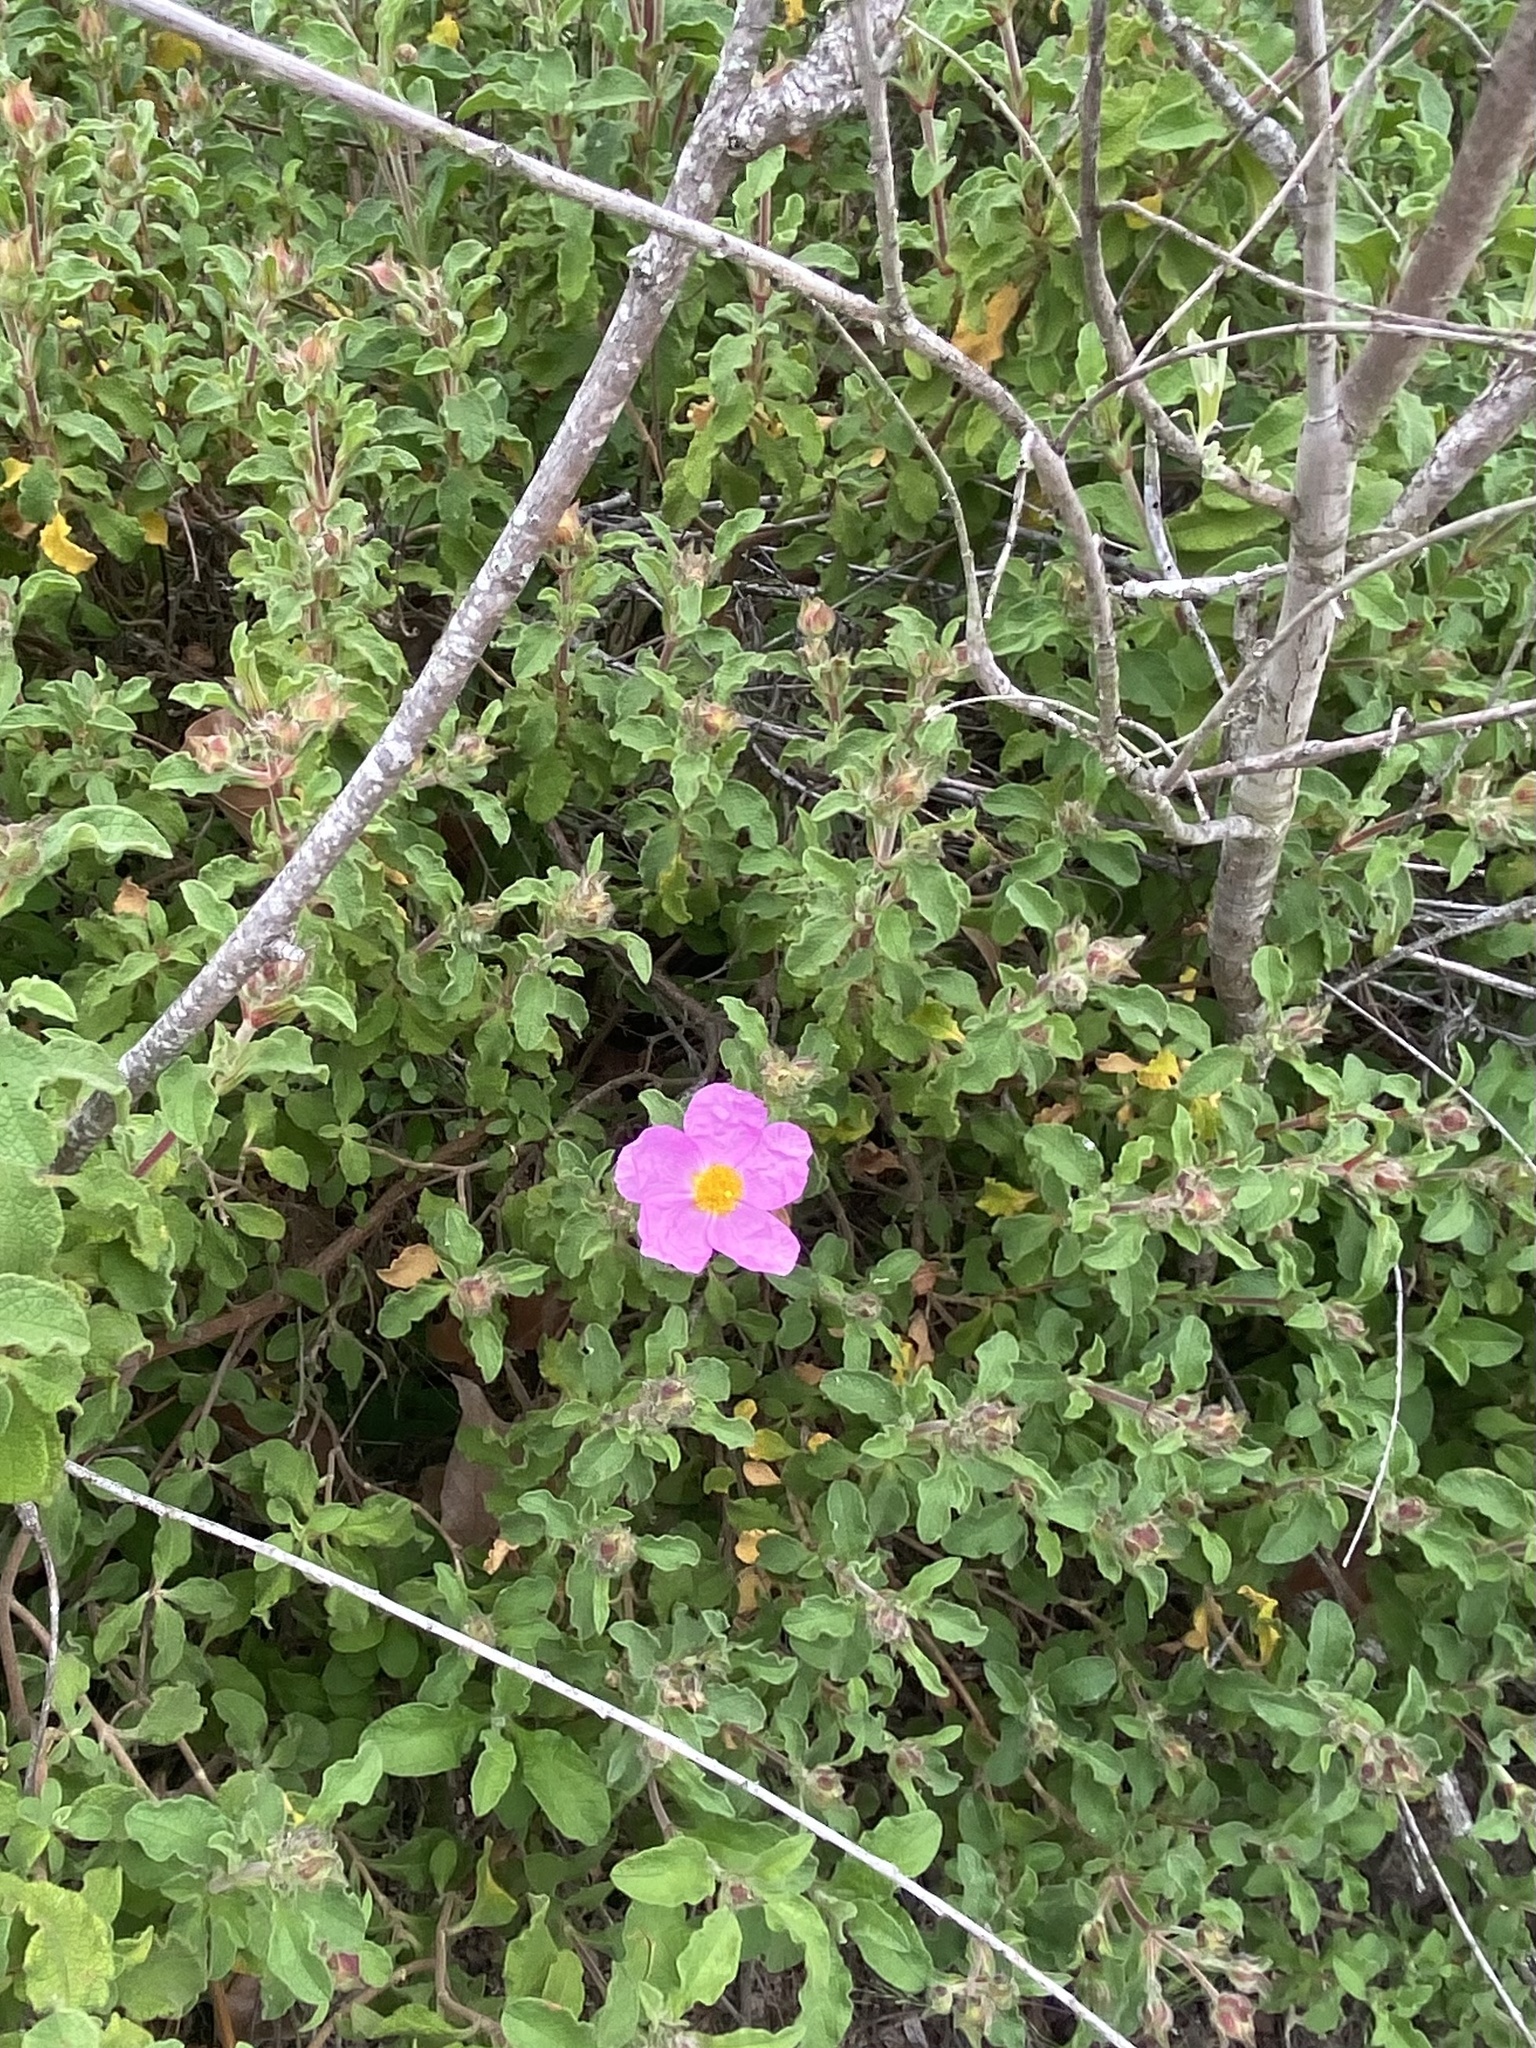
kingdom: Plantae
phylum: Tracheophyta
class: Magnoliopsida
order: Malvales
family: Cistaceae
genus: Cistus
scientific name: Cistus creticus
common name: Cretan rockrose
